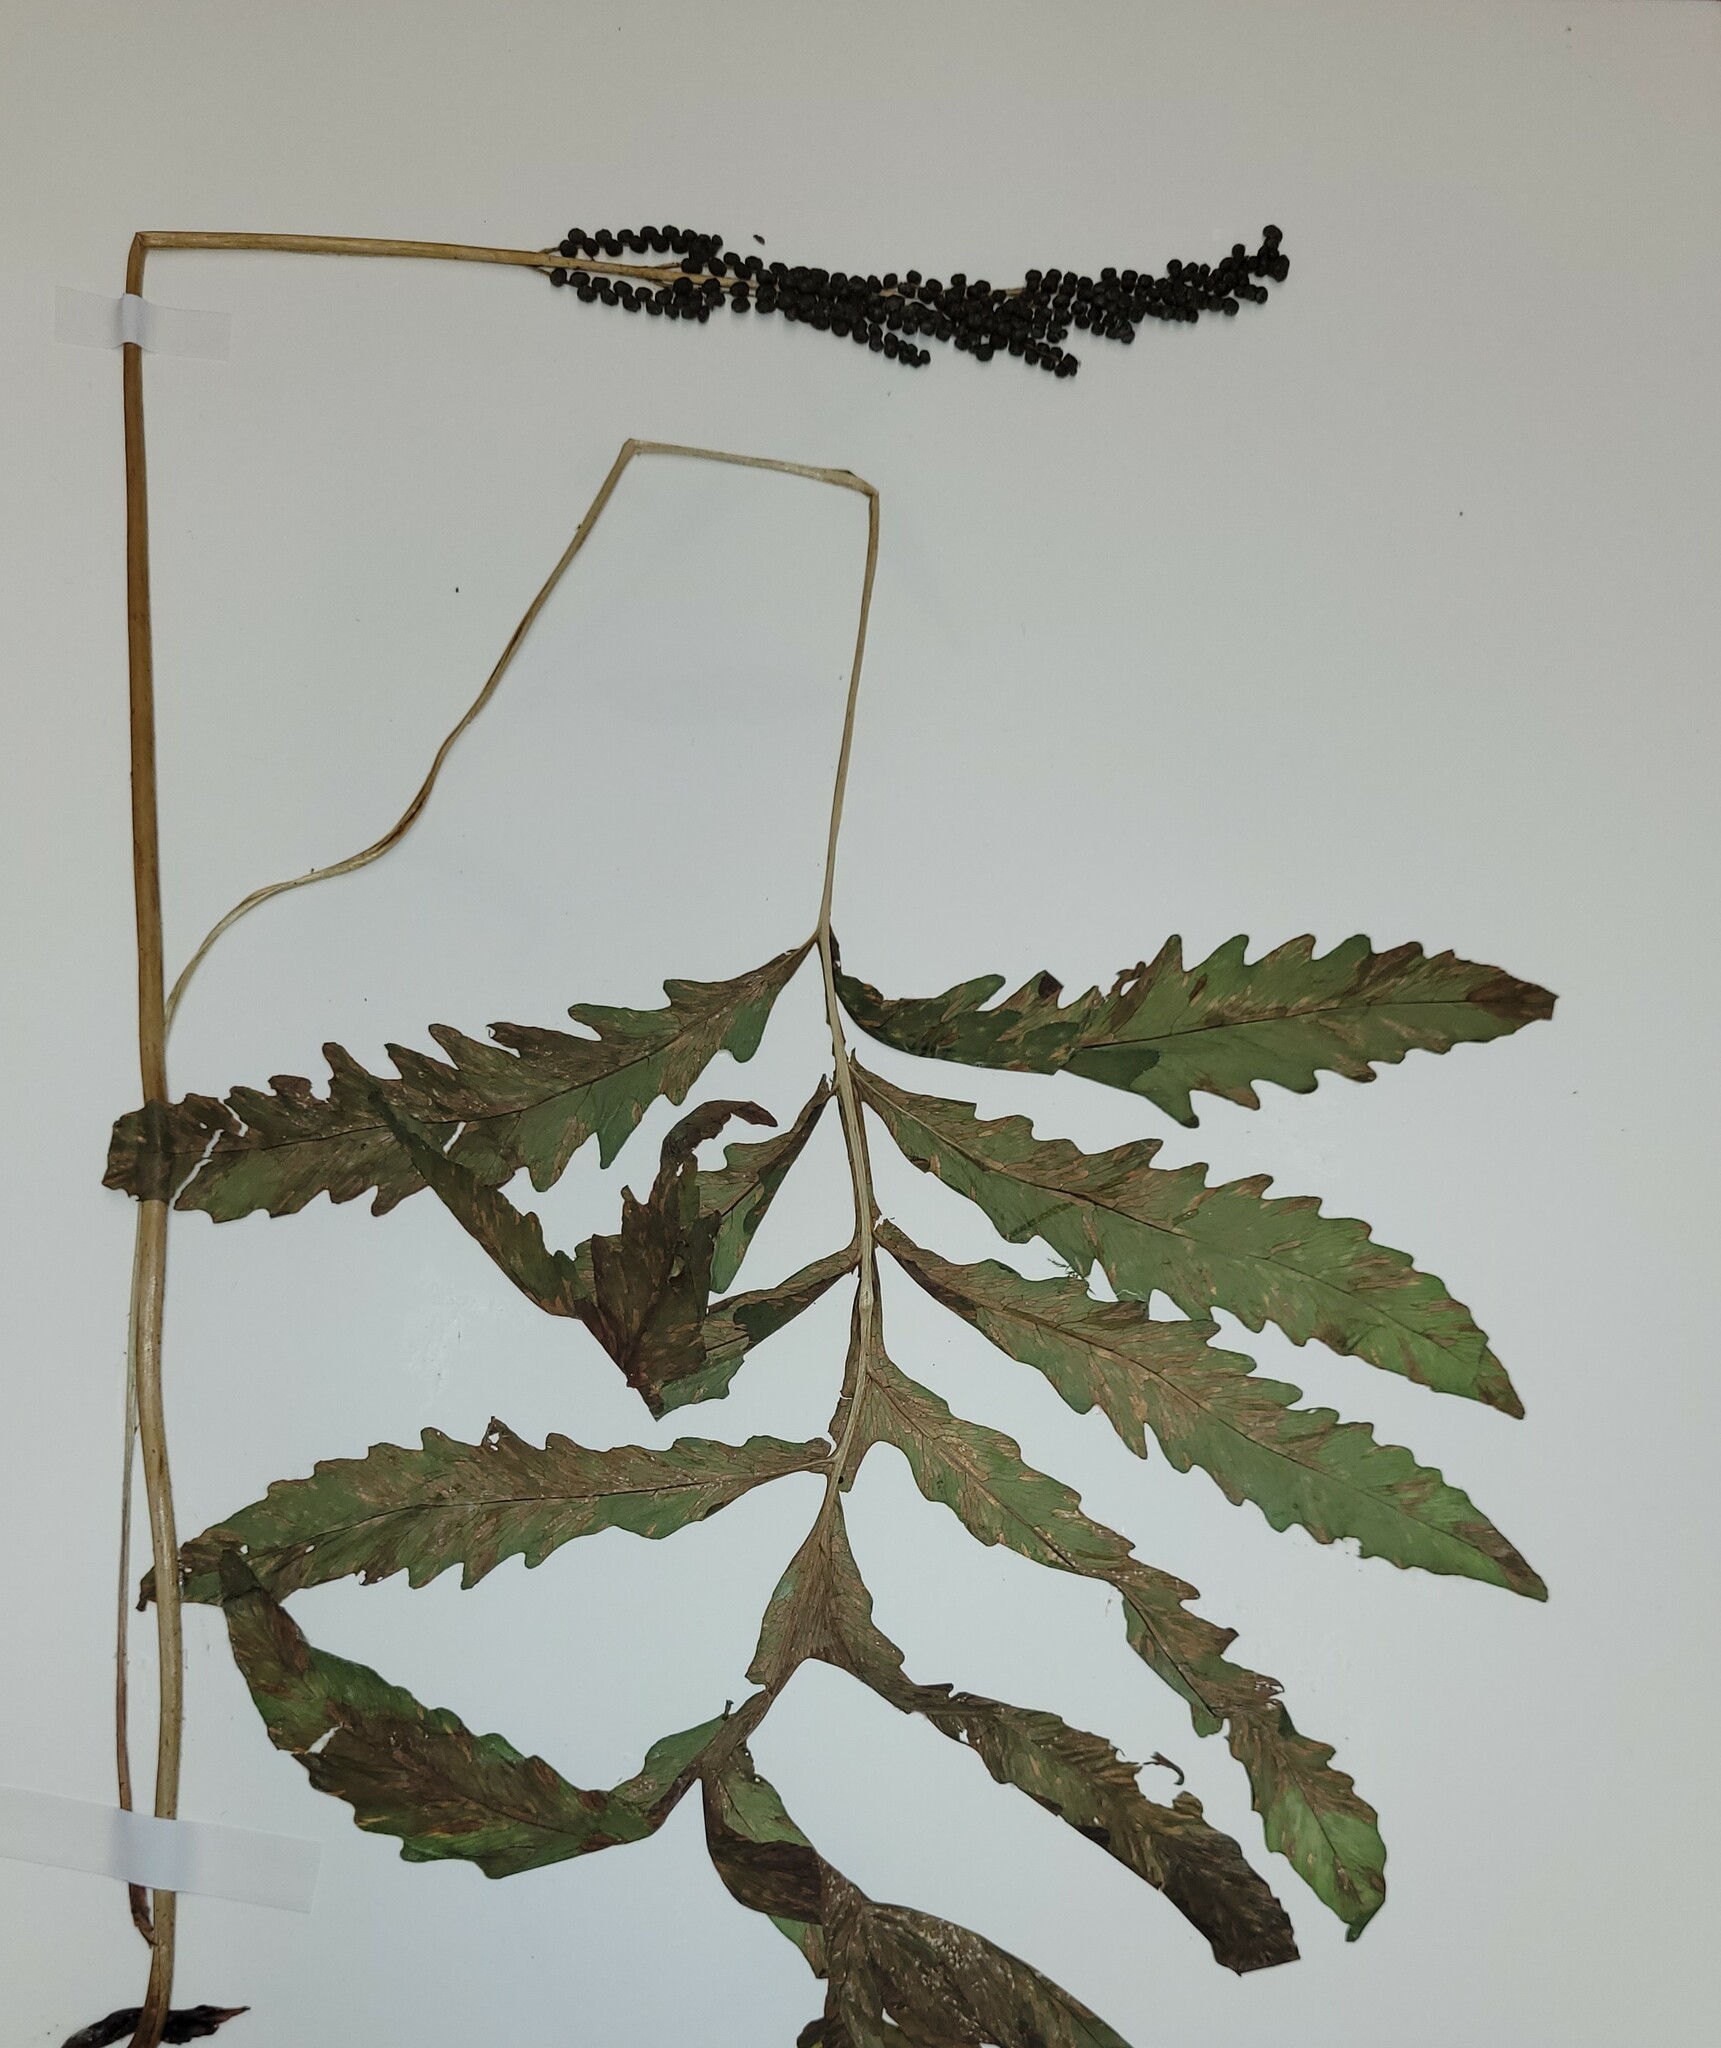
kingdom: Plantae
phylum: Tracheophyta
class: Polypodiopsida
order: Polypodiales
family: Onocleaceae
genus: Onoclea
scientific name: Onoclea sensibilis
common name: Sensitive fern
